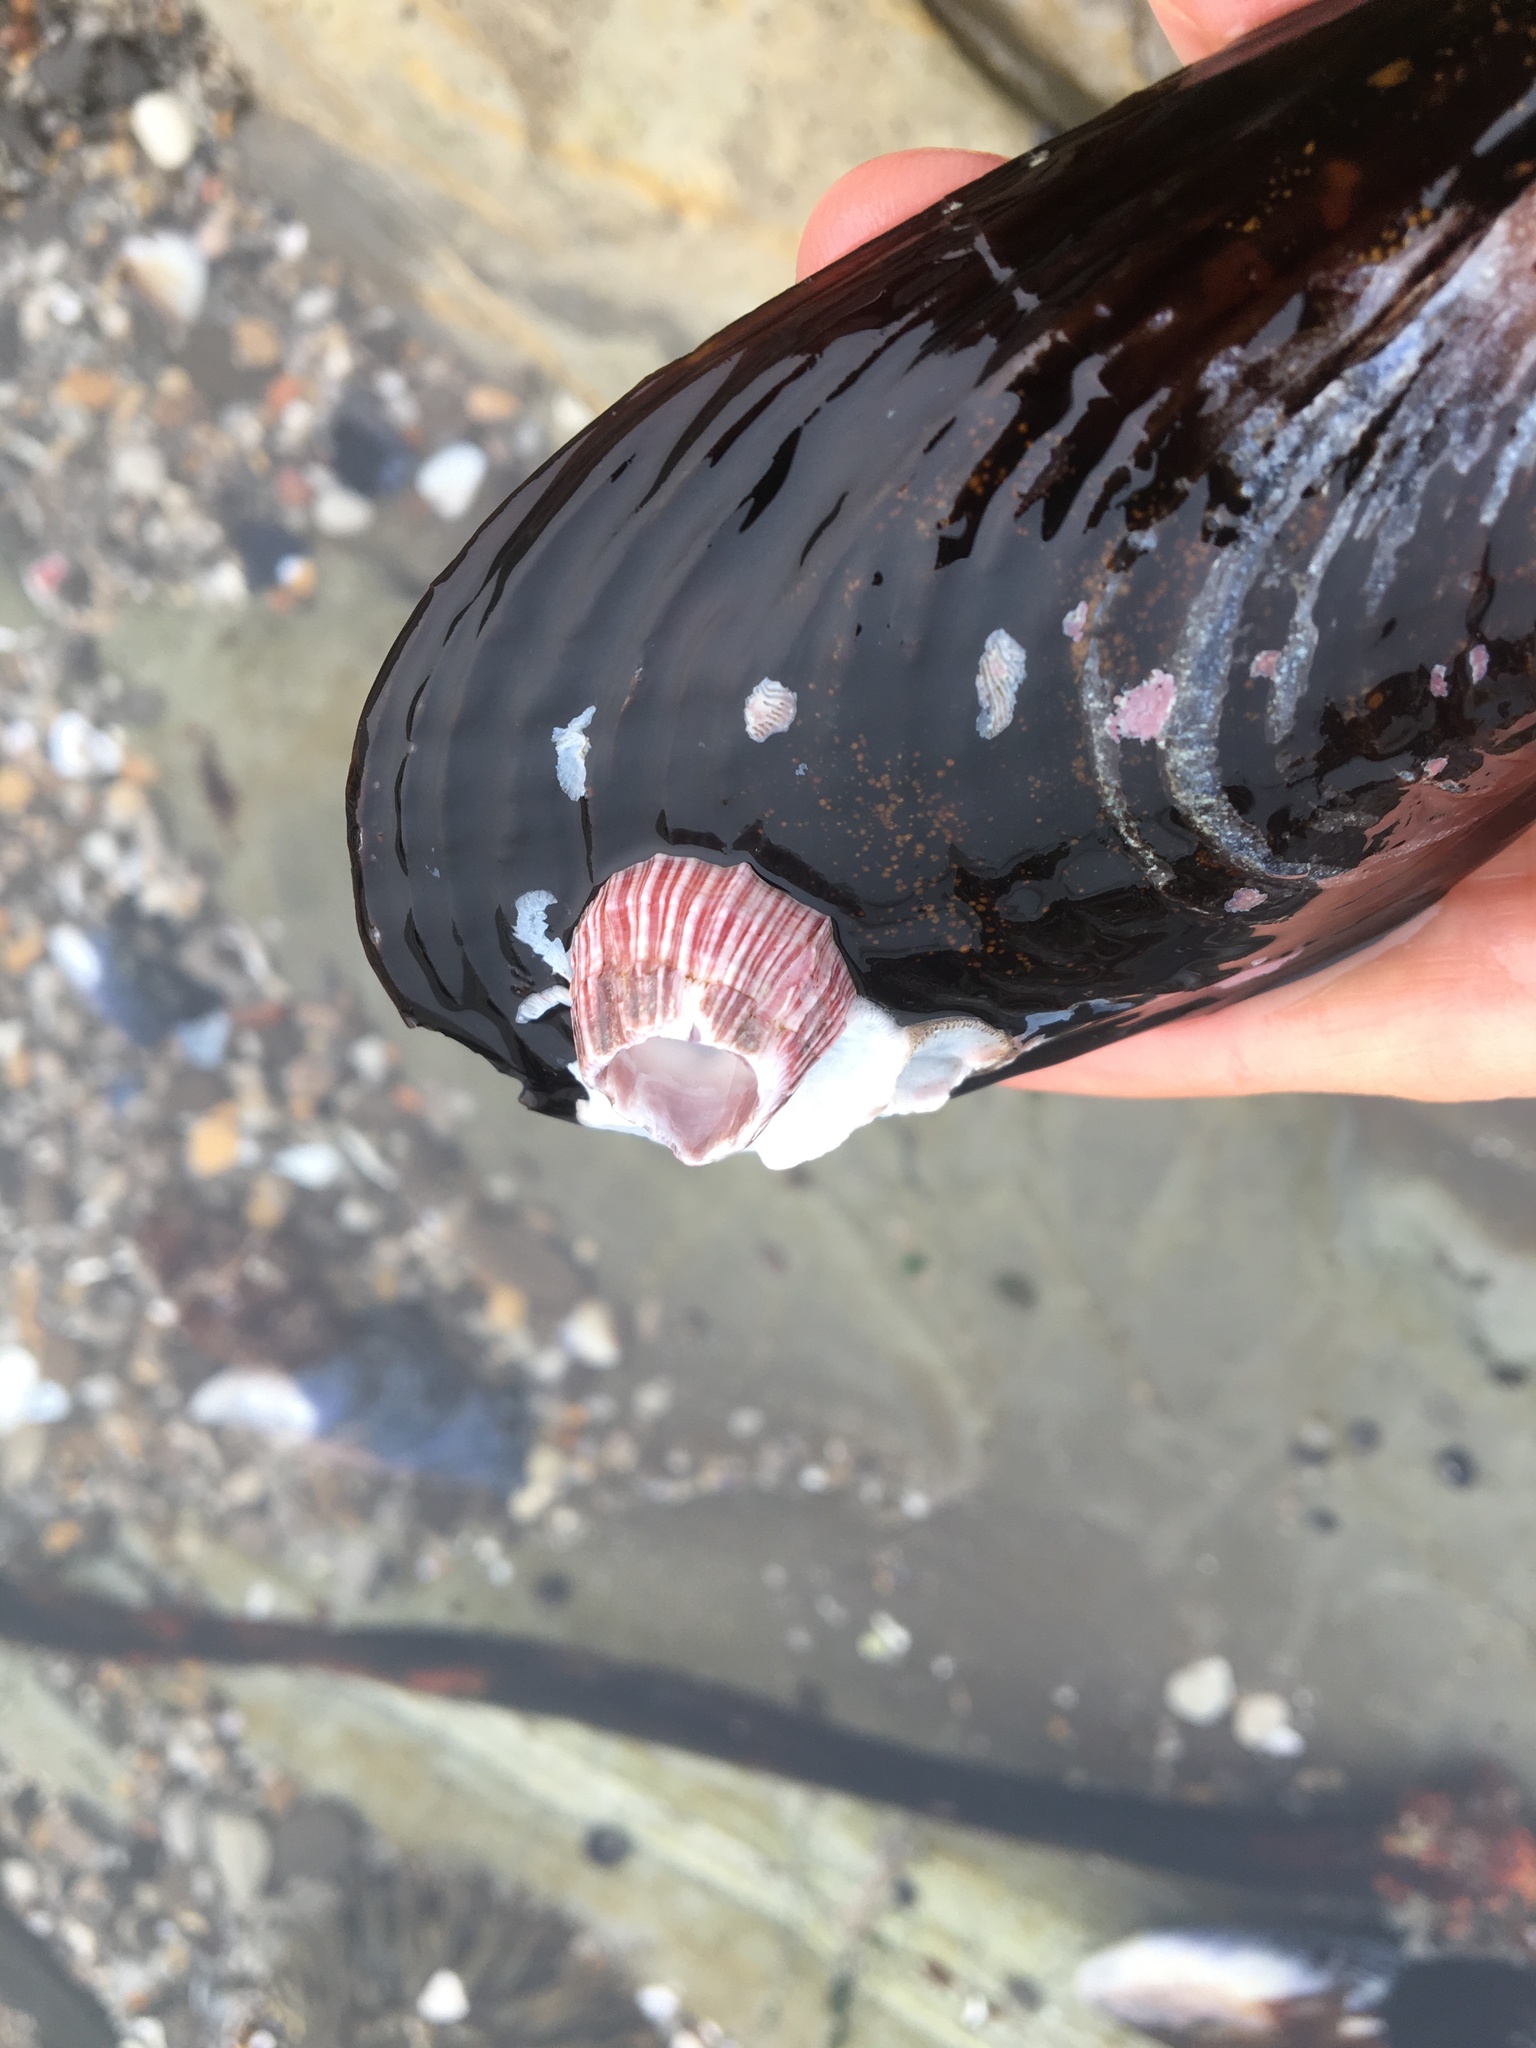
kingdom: Animalia
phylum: Arthropoda
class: Maxillopoda
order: Sessilia
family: Balanidae
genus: Megabalanus
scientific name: Megabalanus californicus
